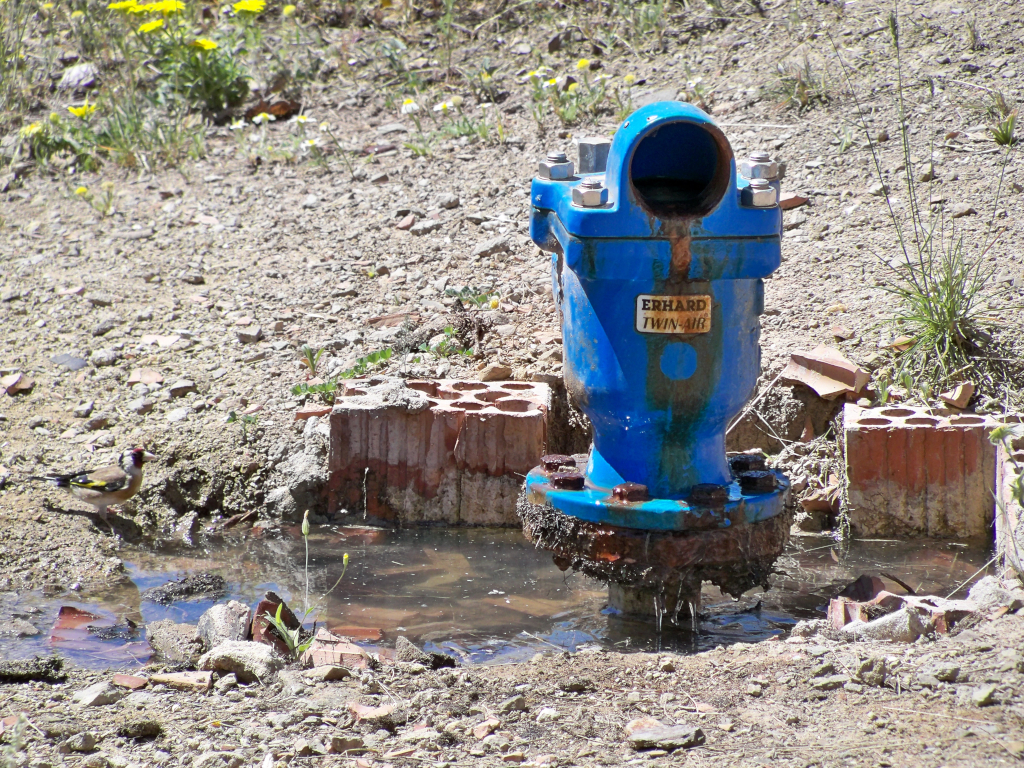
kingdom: Animalia
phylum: Chordata
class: Aves
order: Passeriformes
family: Fringillidae
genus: Carduelis
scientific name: Carduelis carduelis
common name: European goldfinch
